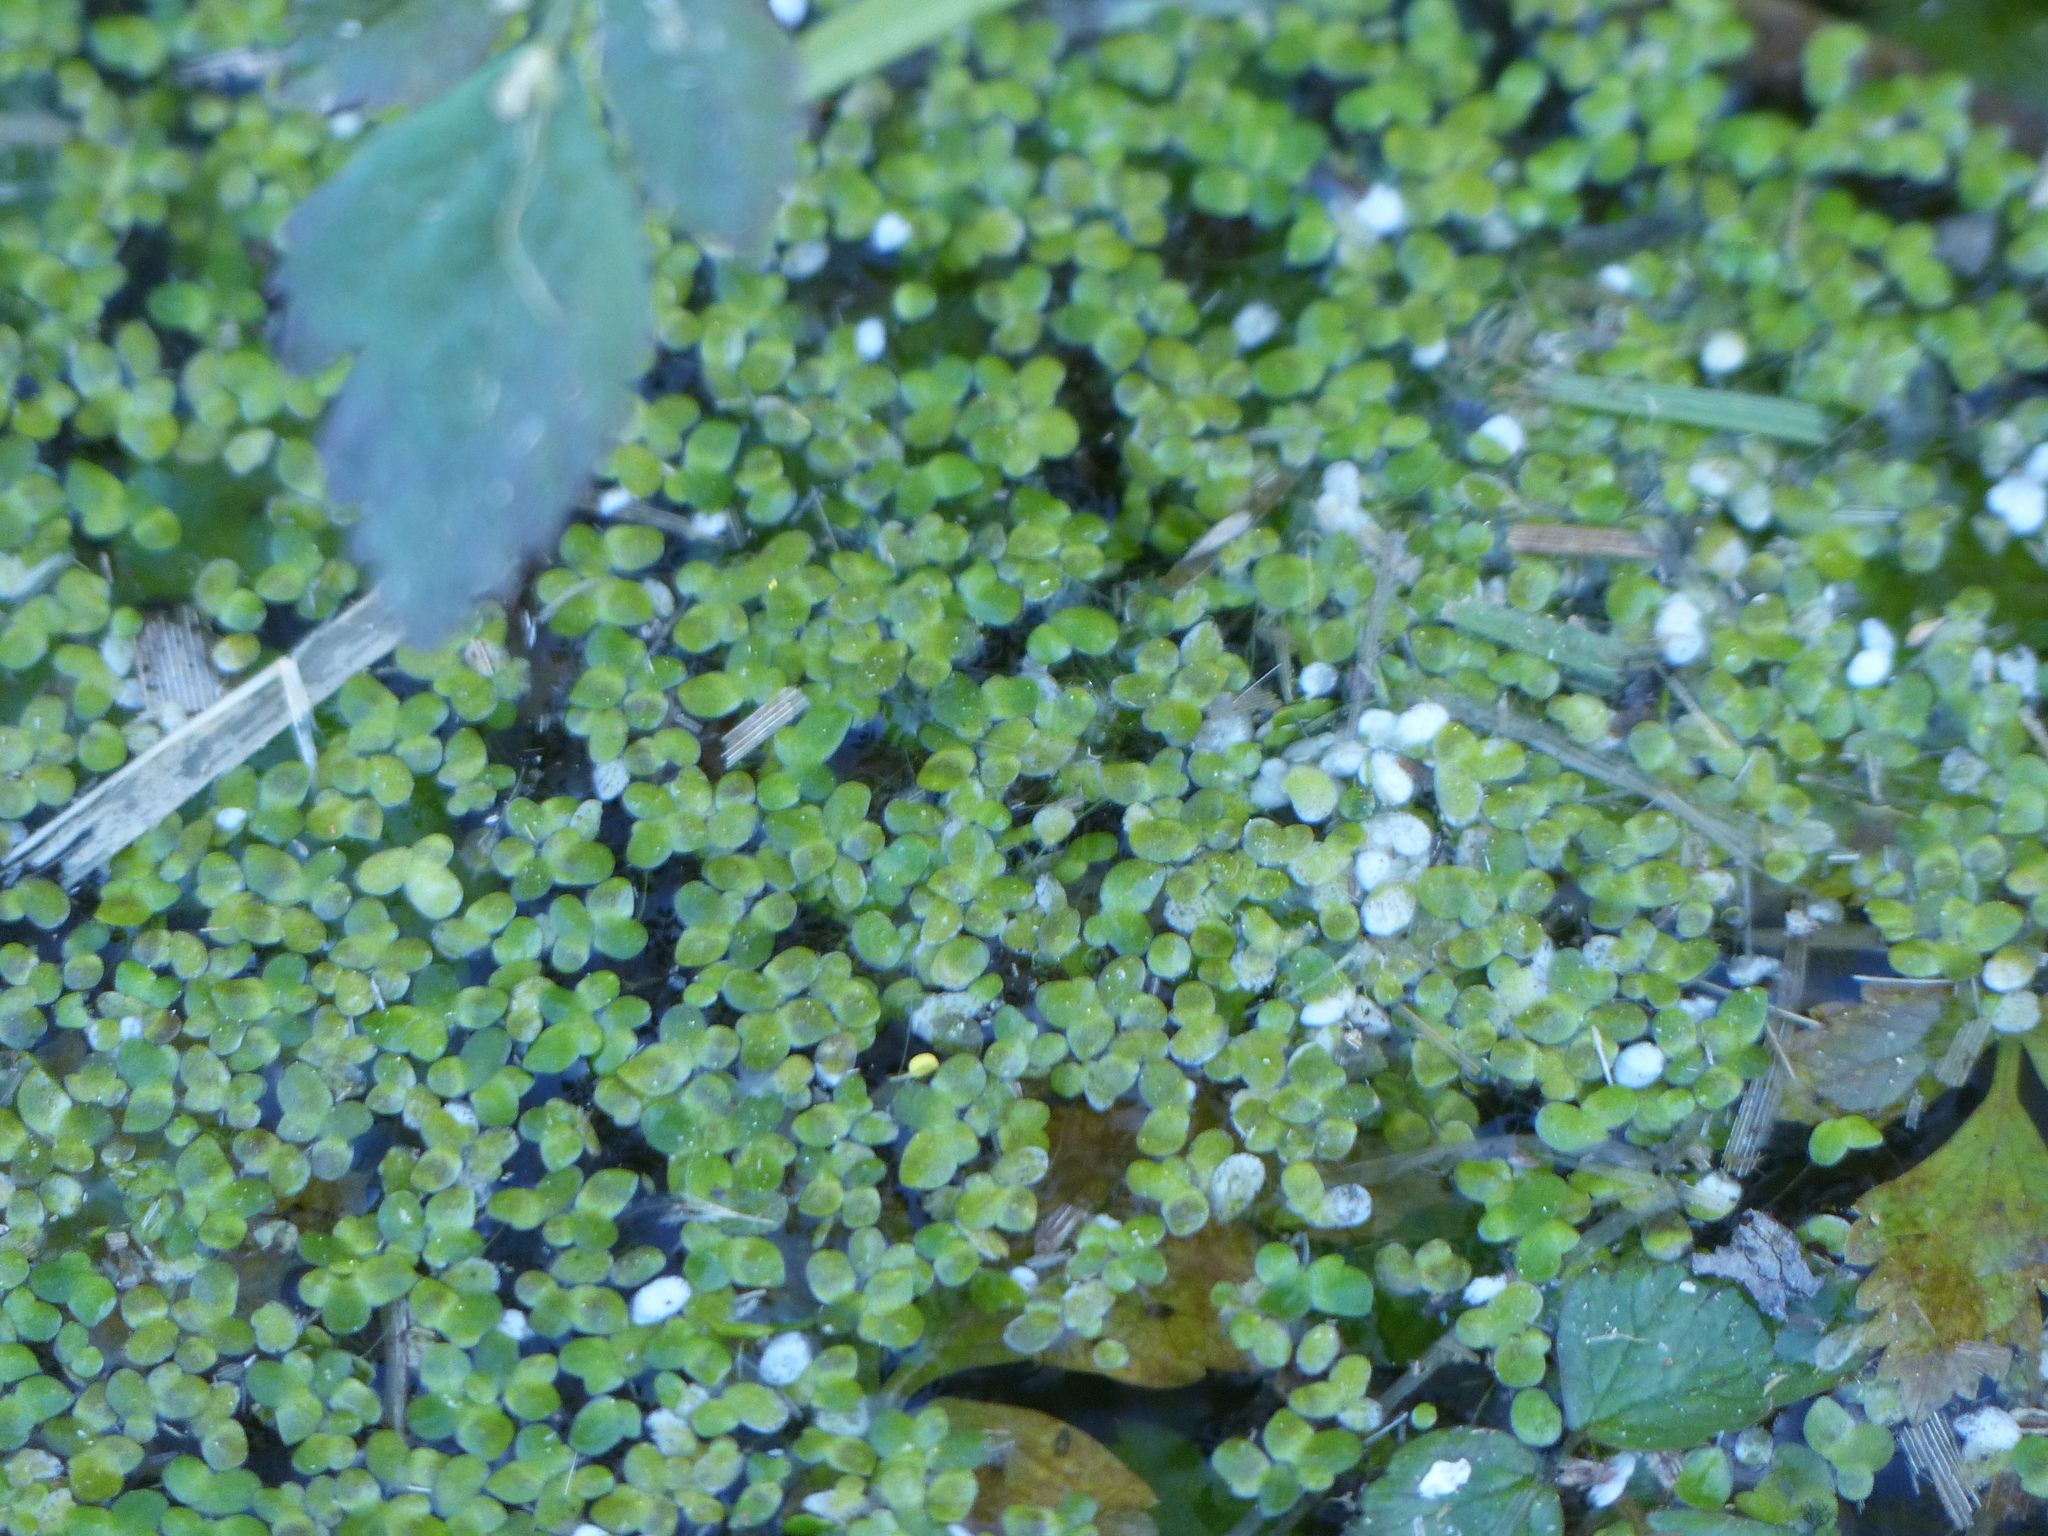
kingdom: Plantae
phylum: Tracheophyta
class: Liliopsida
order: Alismatales
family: Araceae
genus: Lemna
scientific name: Lemna minor
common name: Common duckweed
